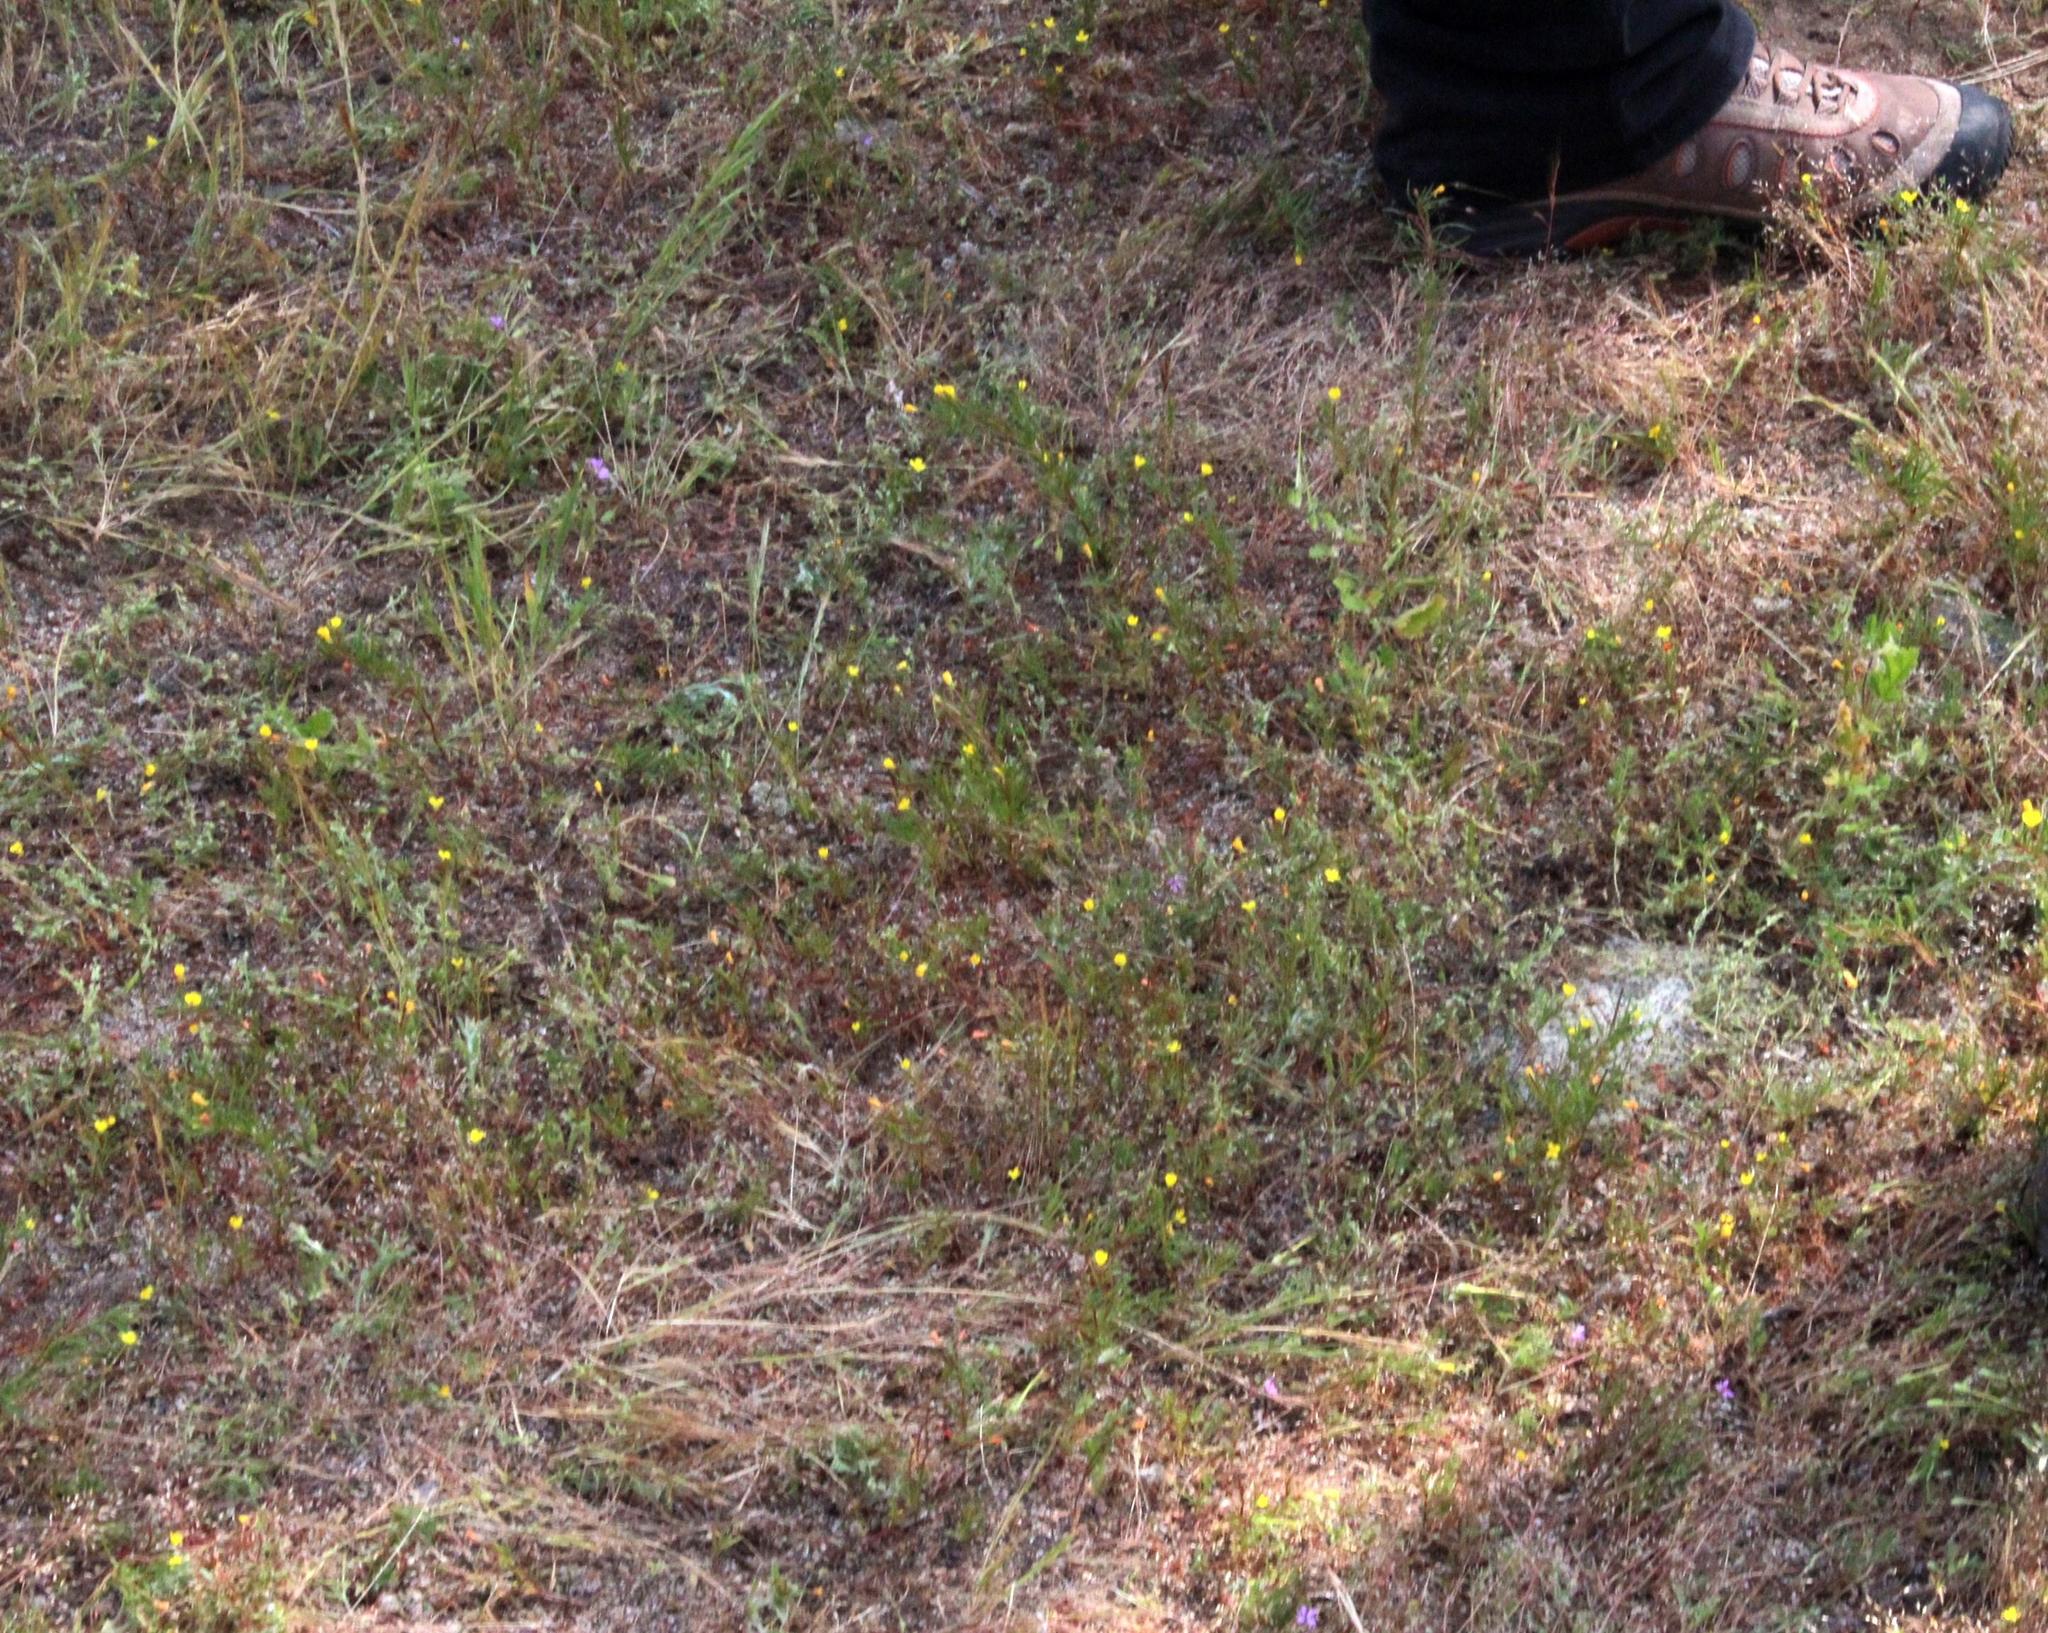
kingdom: Plantae
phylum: Tracheophyta
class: Magnoliopsida
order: Myrtales
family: Onagraceae
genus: Camissonia
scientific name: Camissonia dentata
